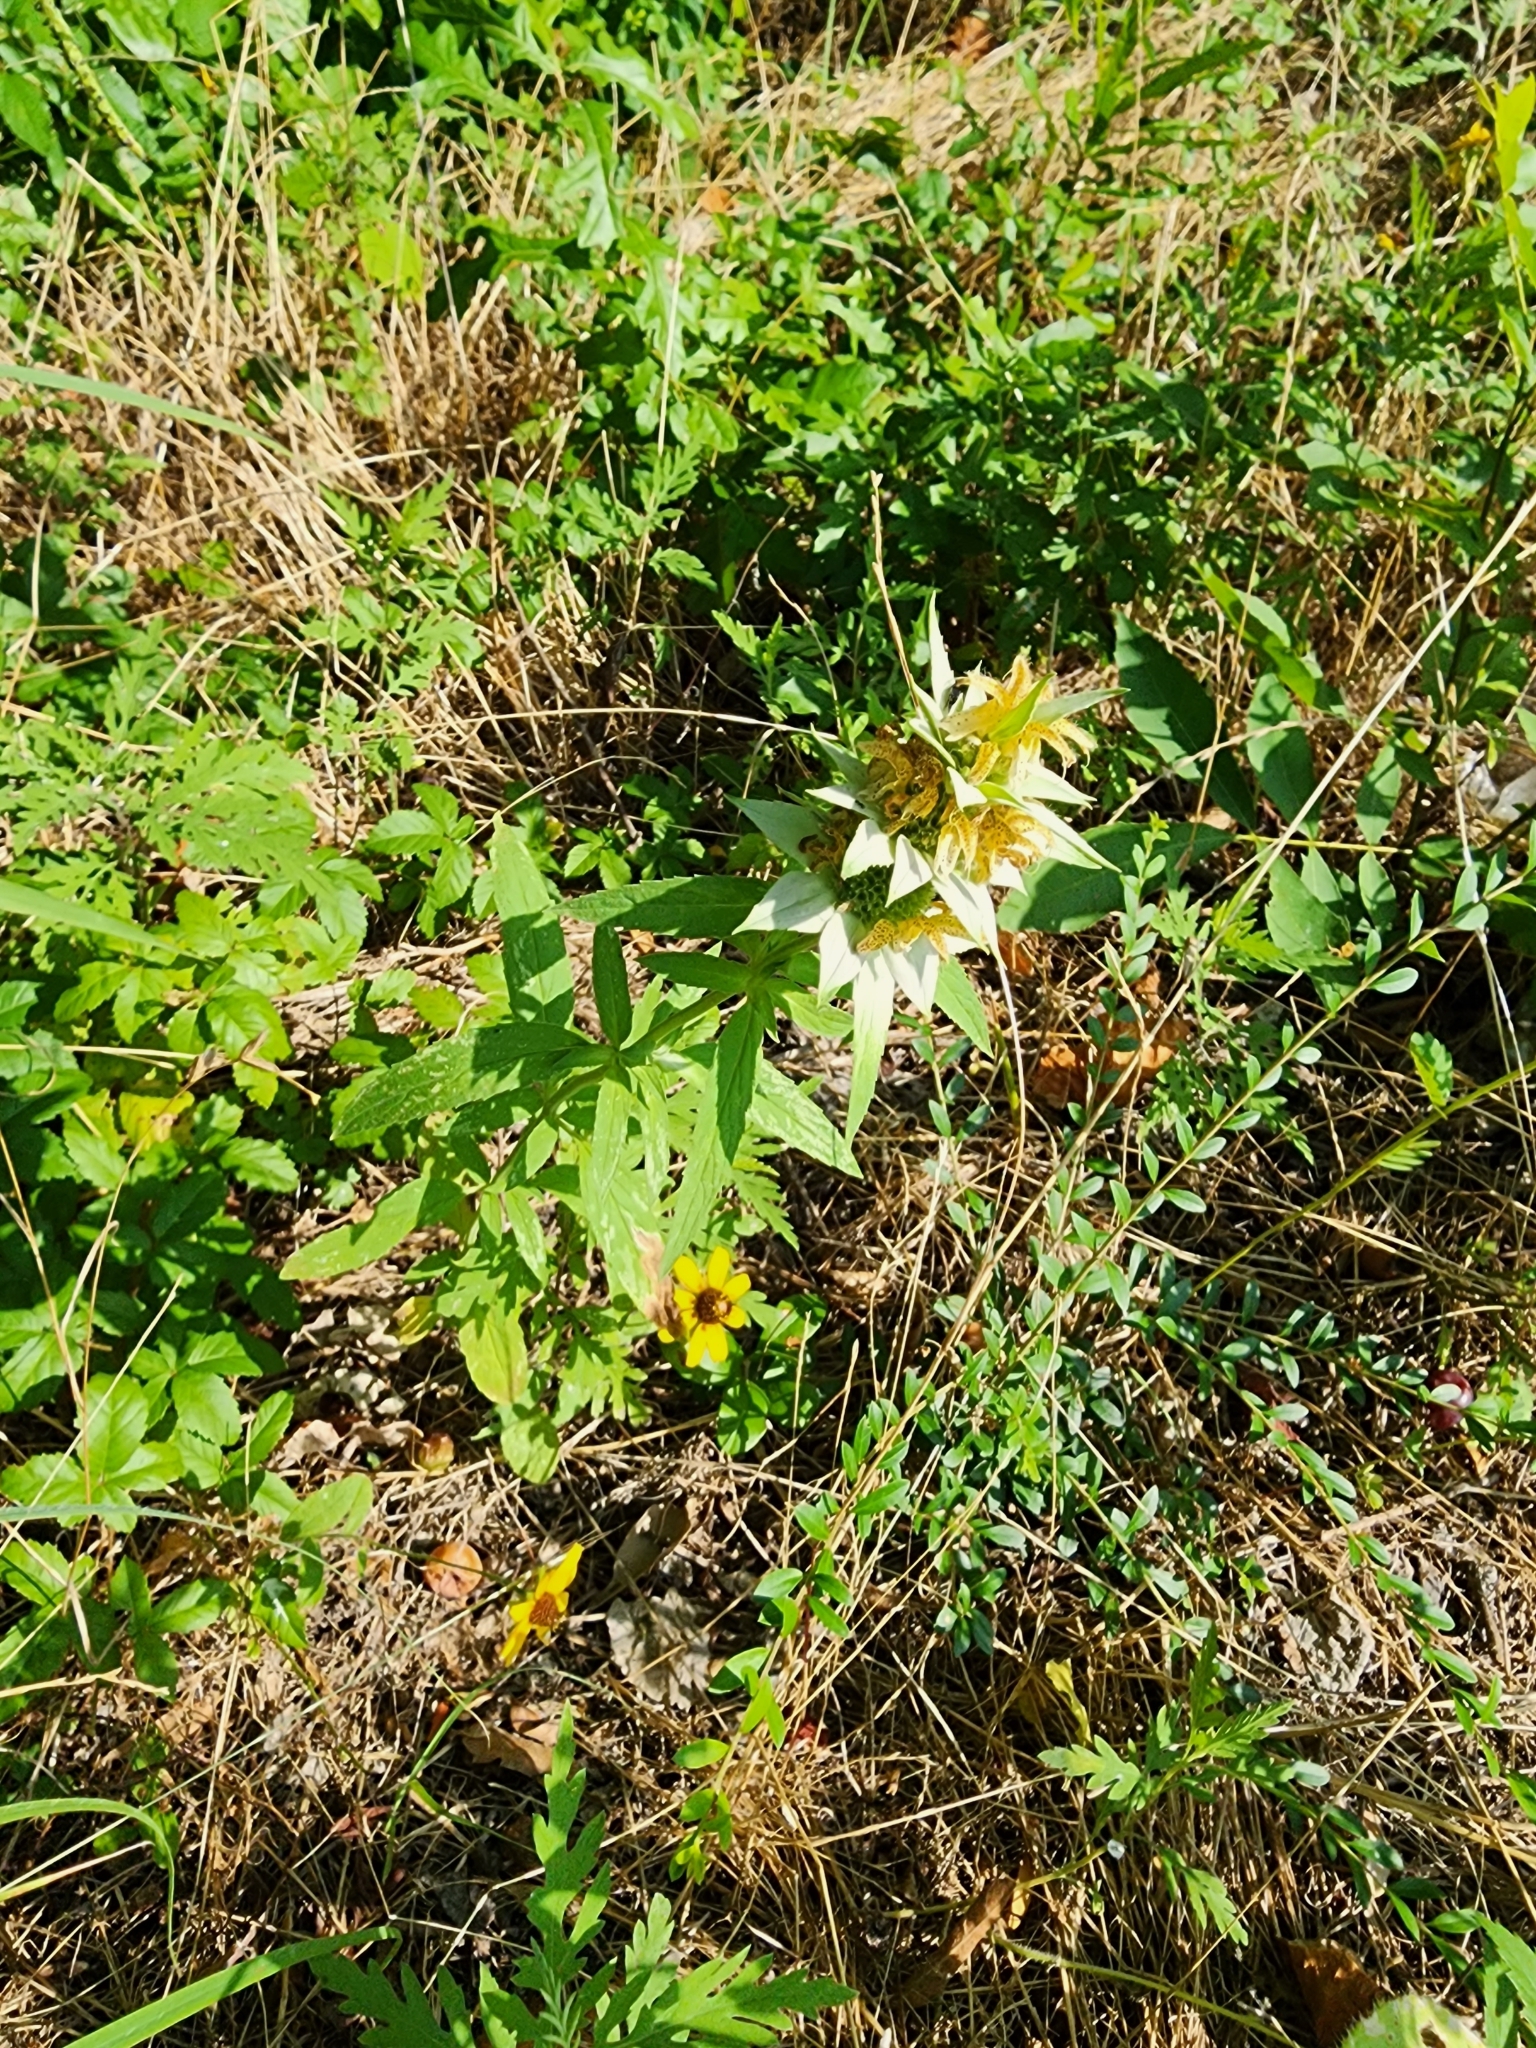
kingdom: Plantae
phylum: Tracheophyta
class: Magnoliopsida
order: Lamiales
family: Lamiaceae
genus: Monarda
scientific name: Monarda punctata
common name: Dotted monarda
